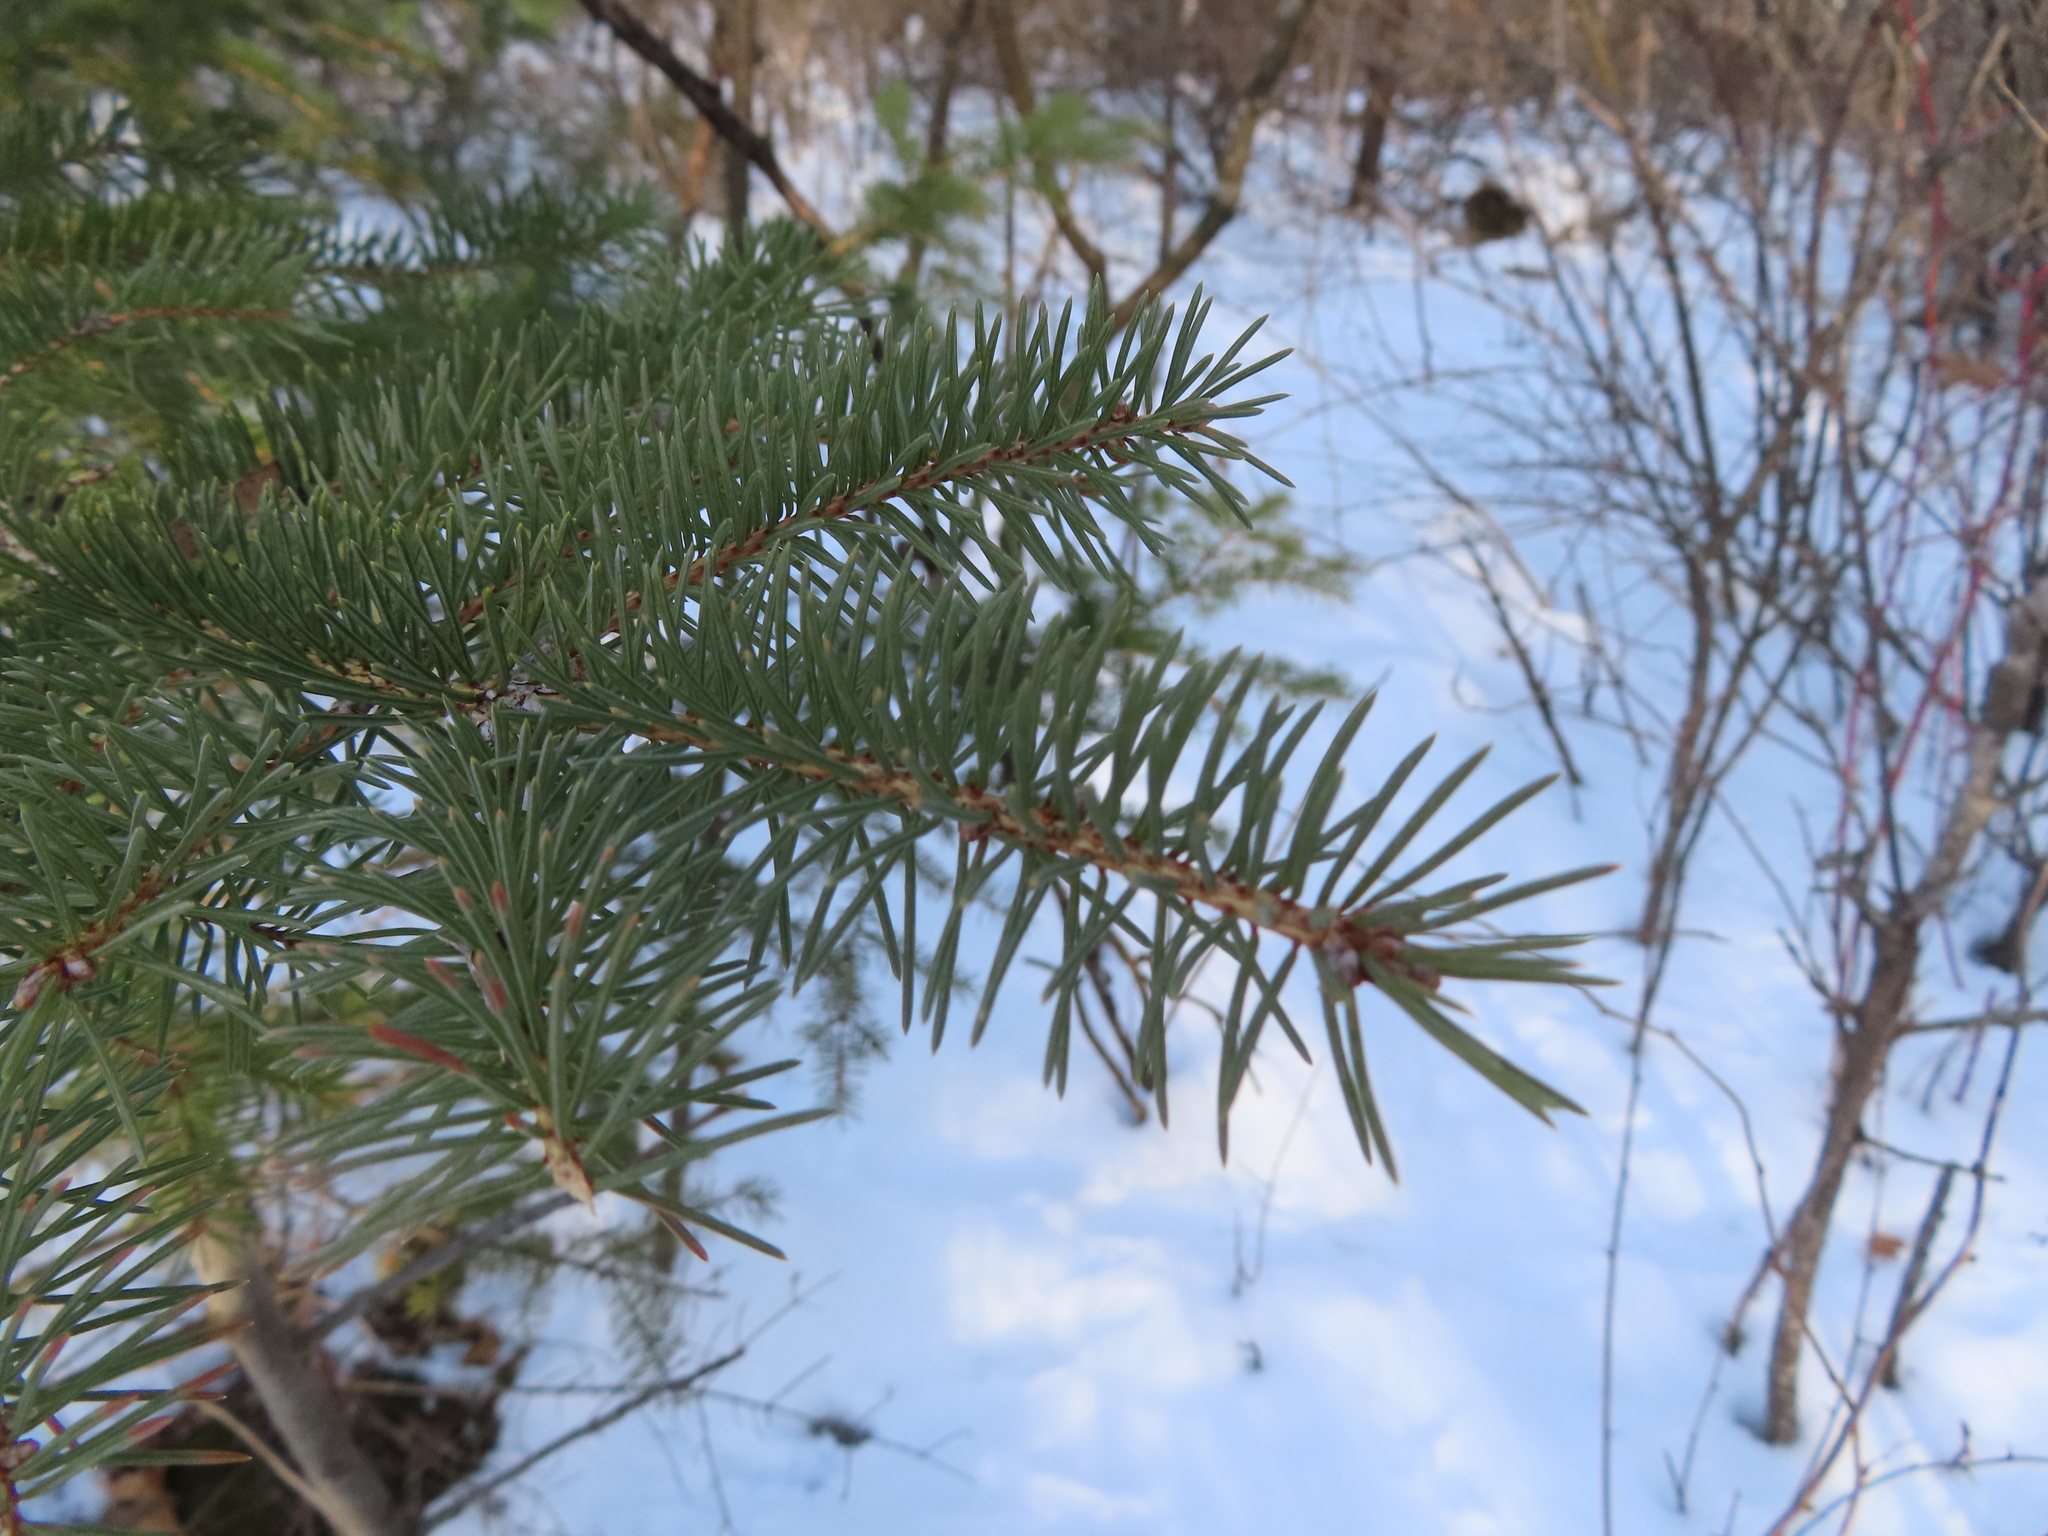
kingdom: Plantae
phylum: Tracheophyta
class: Pinopsida
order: Pinales
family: Pinaceae
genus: Picea
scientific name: Picea glauca
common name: White spruce
